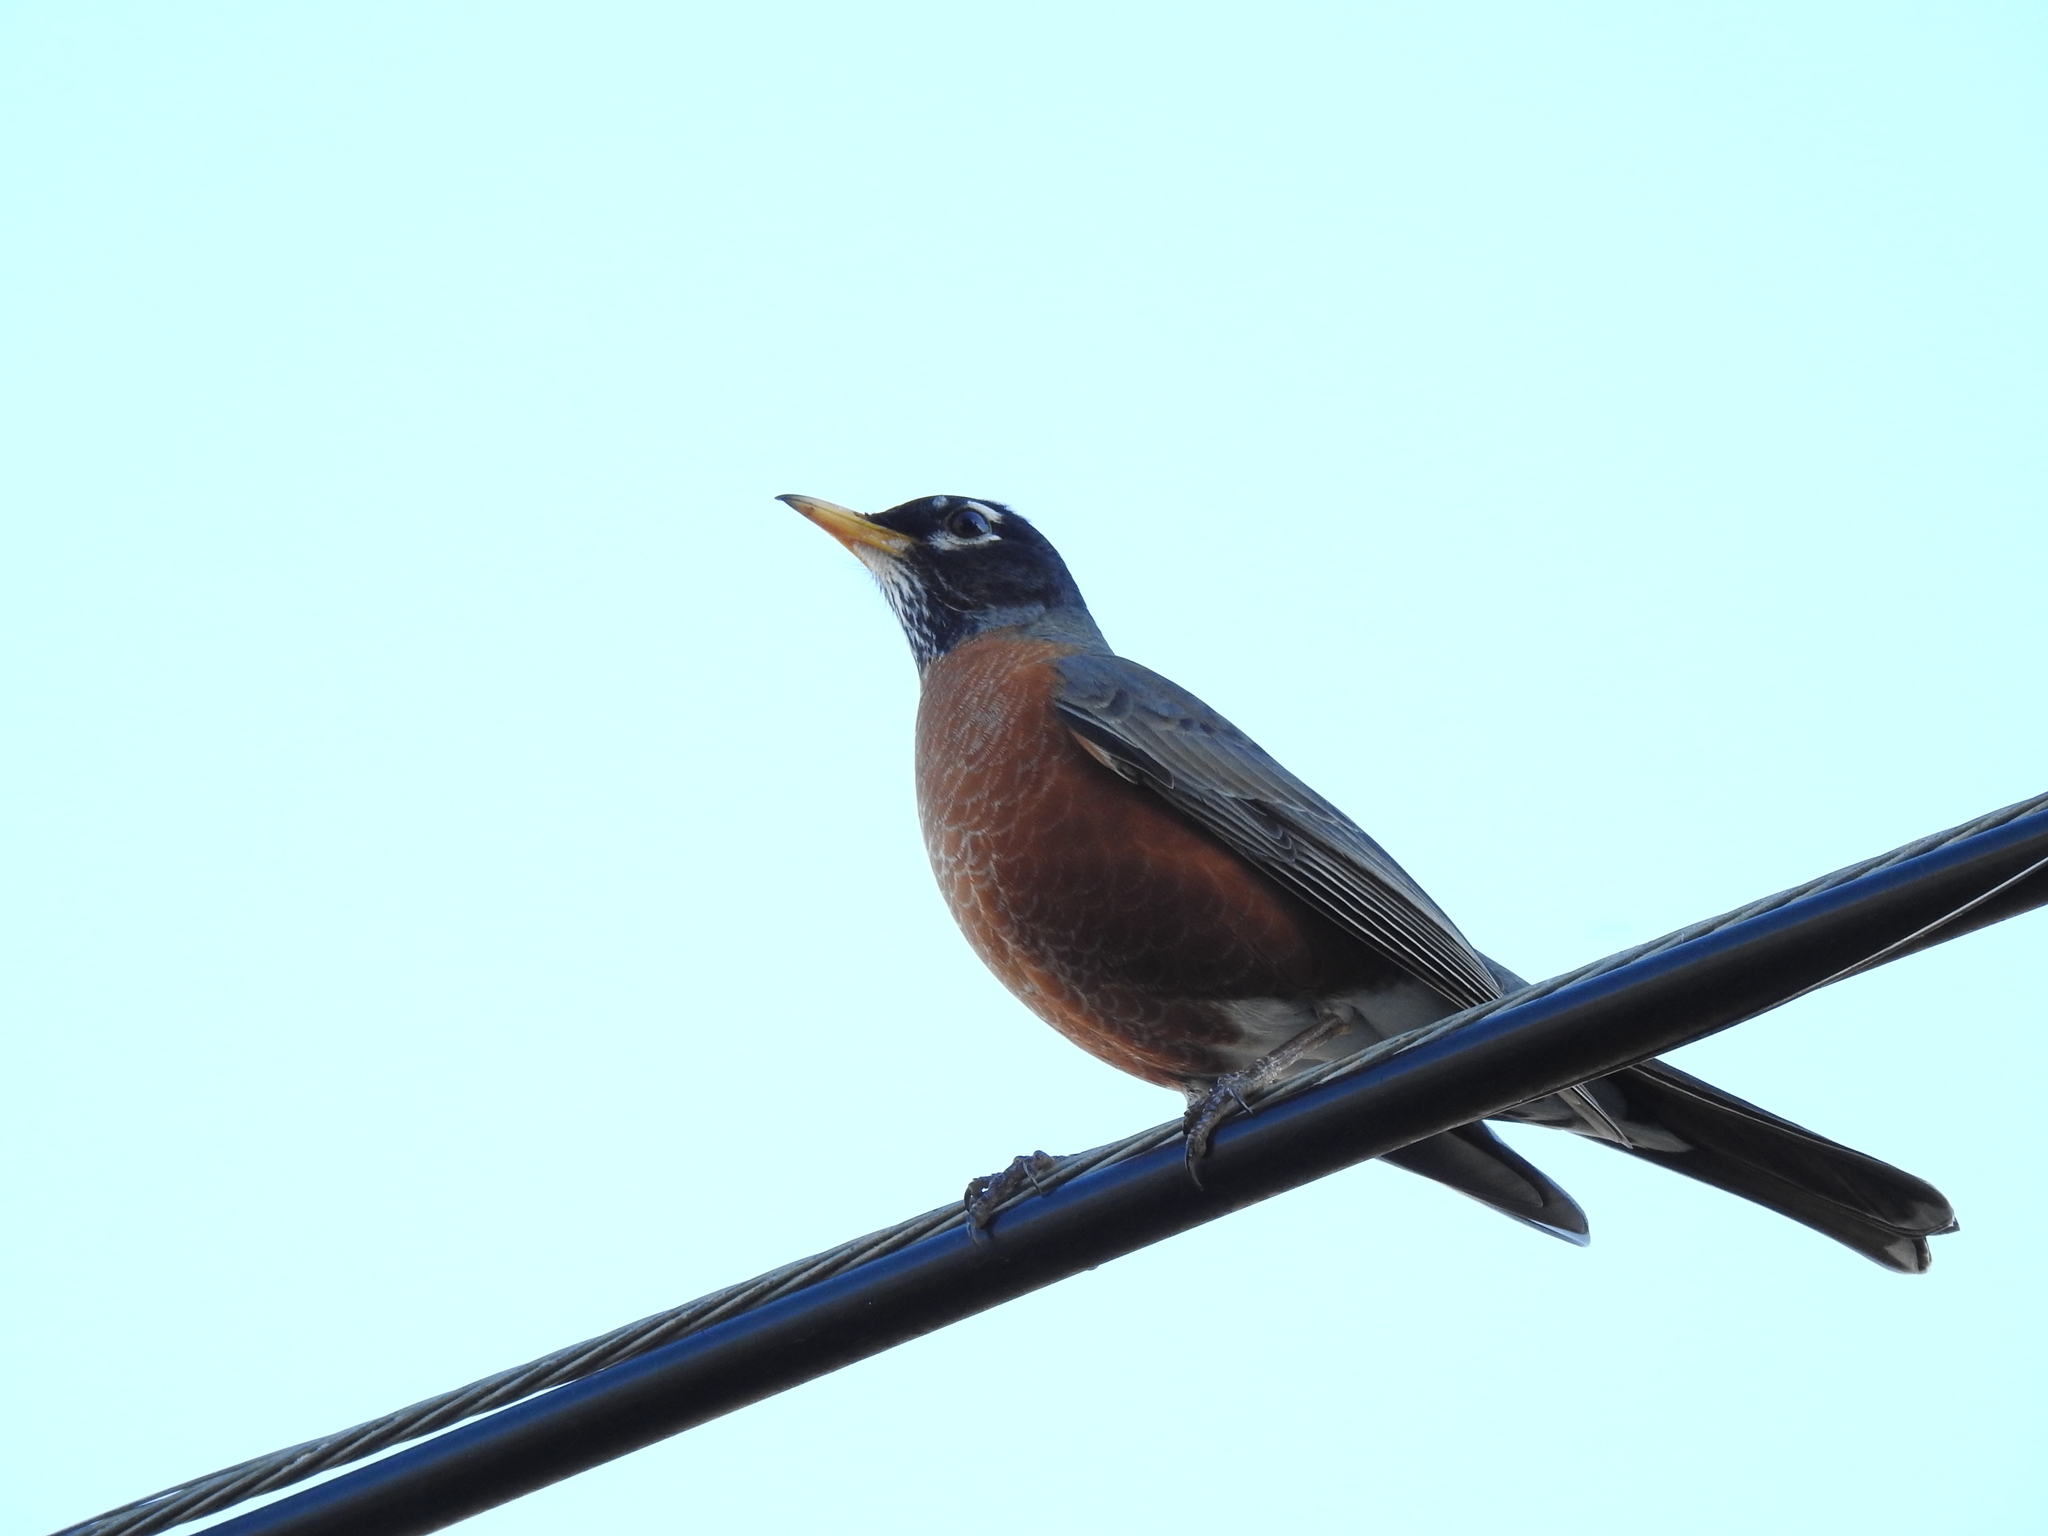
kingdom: Animalia
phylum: Chordata
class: Aves
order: Passeriformes
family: Turdidae
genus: Turdus
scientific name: Turdus migratorius
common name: American robin
